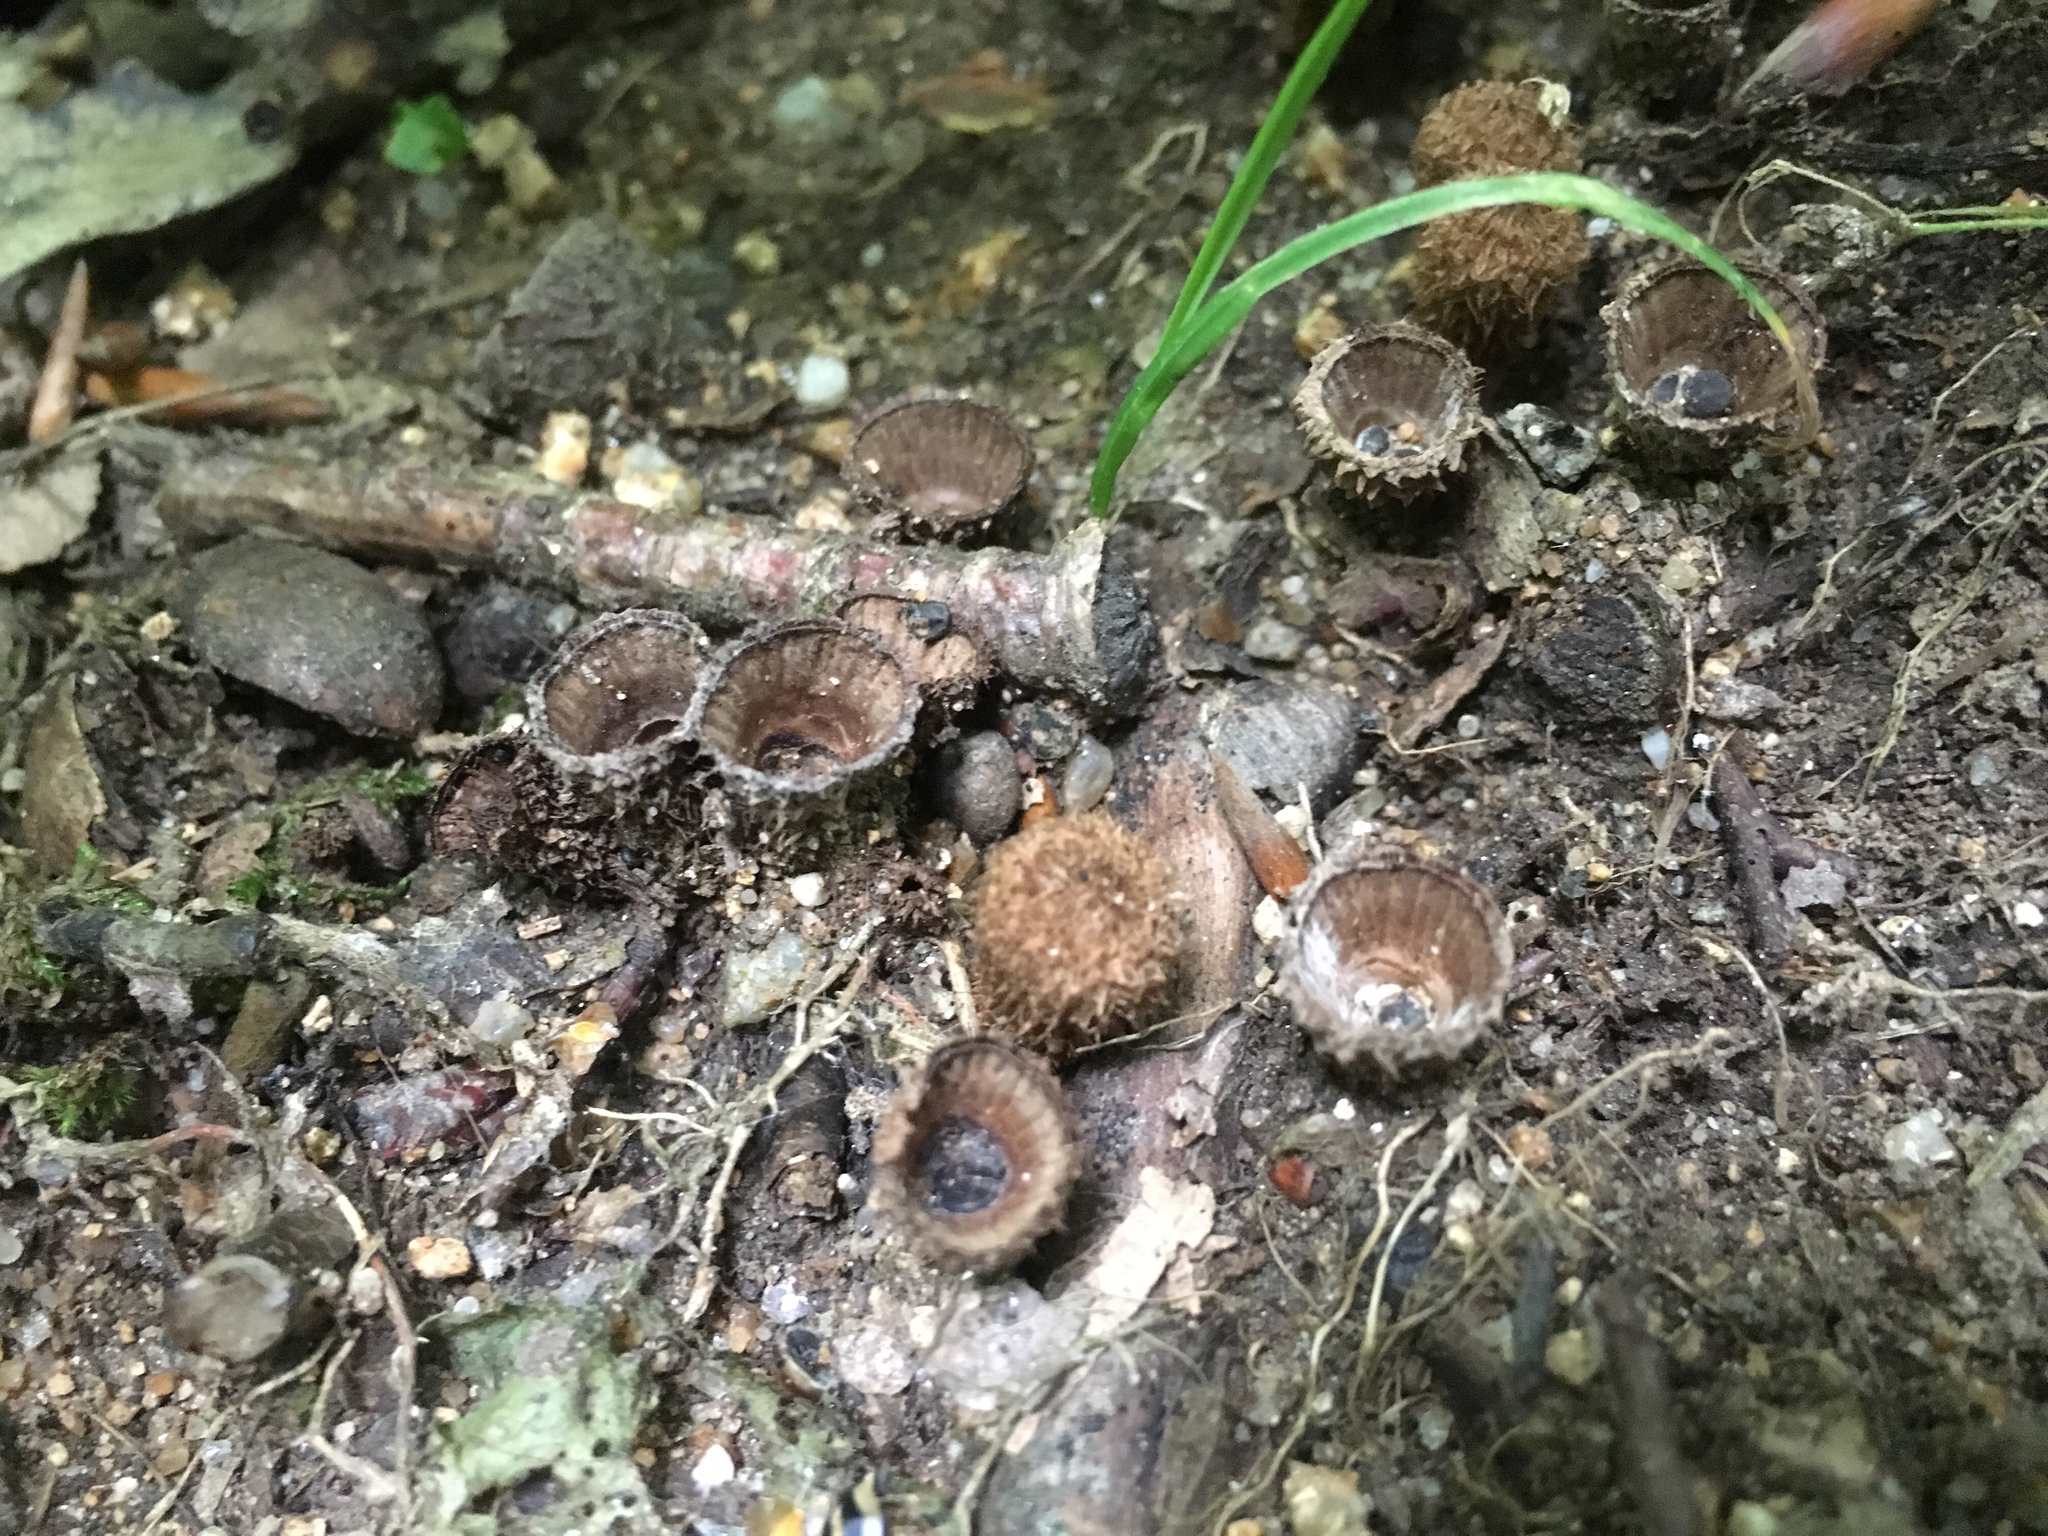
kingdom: Fungi
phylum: Basidiomycota
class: Agaricomycetes
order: Agaricales
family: Agaricaceae
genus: Cyathus
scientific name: Cyathus striatus
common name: Fluted bird's nest
